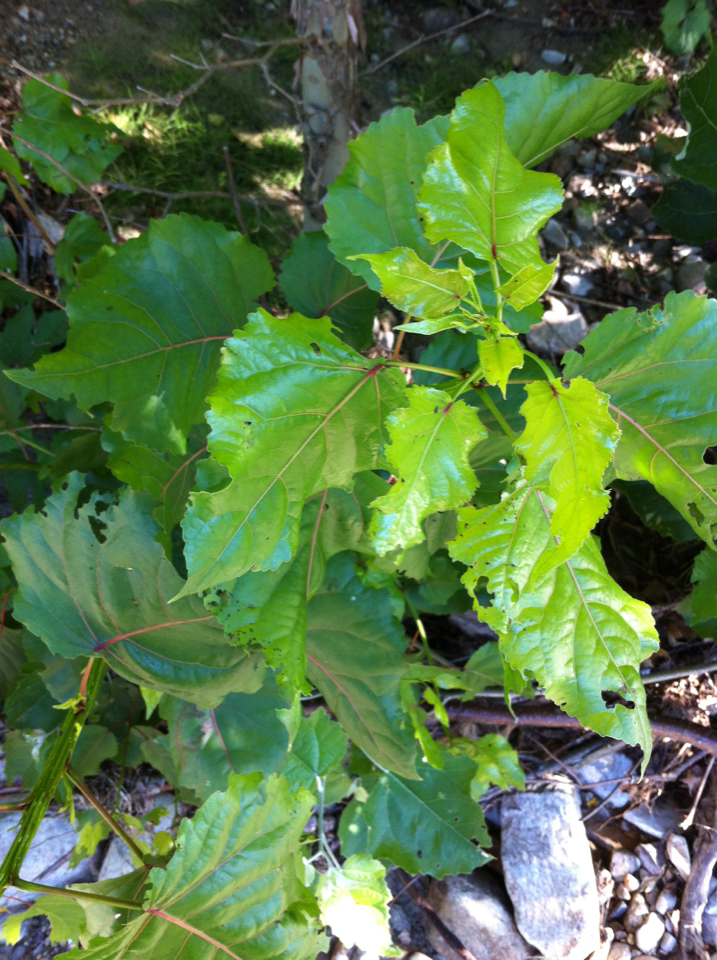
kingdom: Plantae
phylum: Tracheophyta
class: Magnoliopsida
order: Malpighiales
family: Salicaceae
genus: Populus
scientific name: Populus deltoides
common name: Eastern cottonwood
